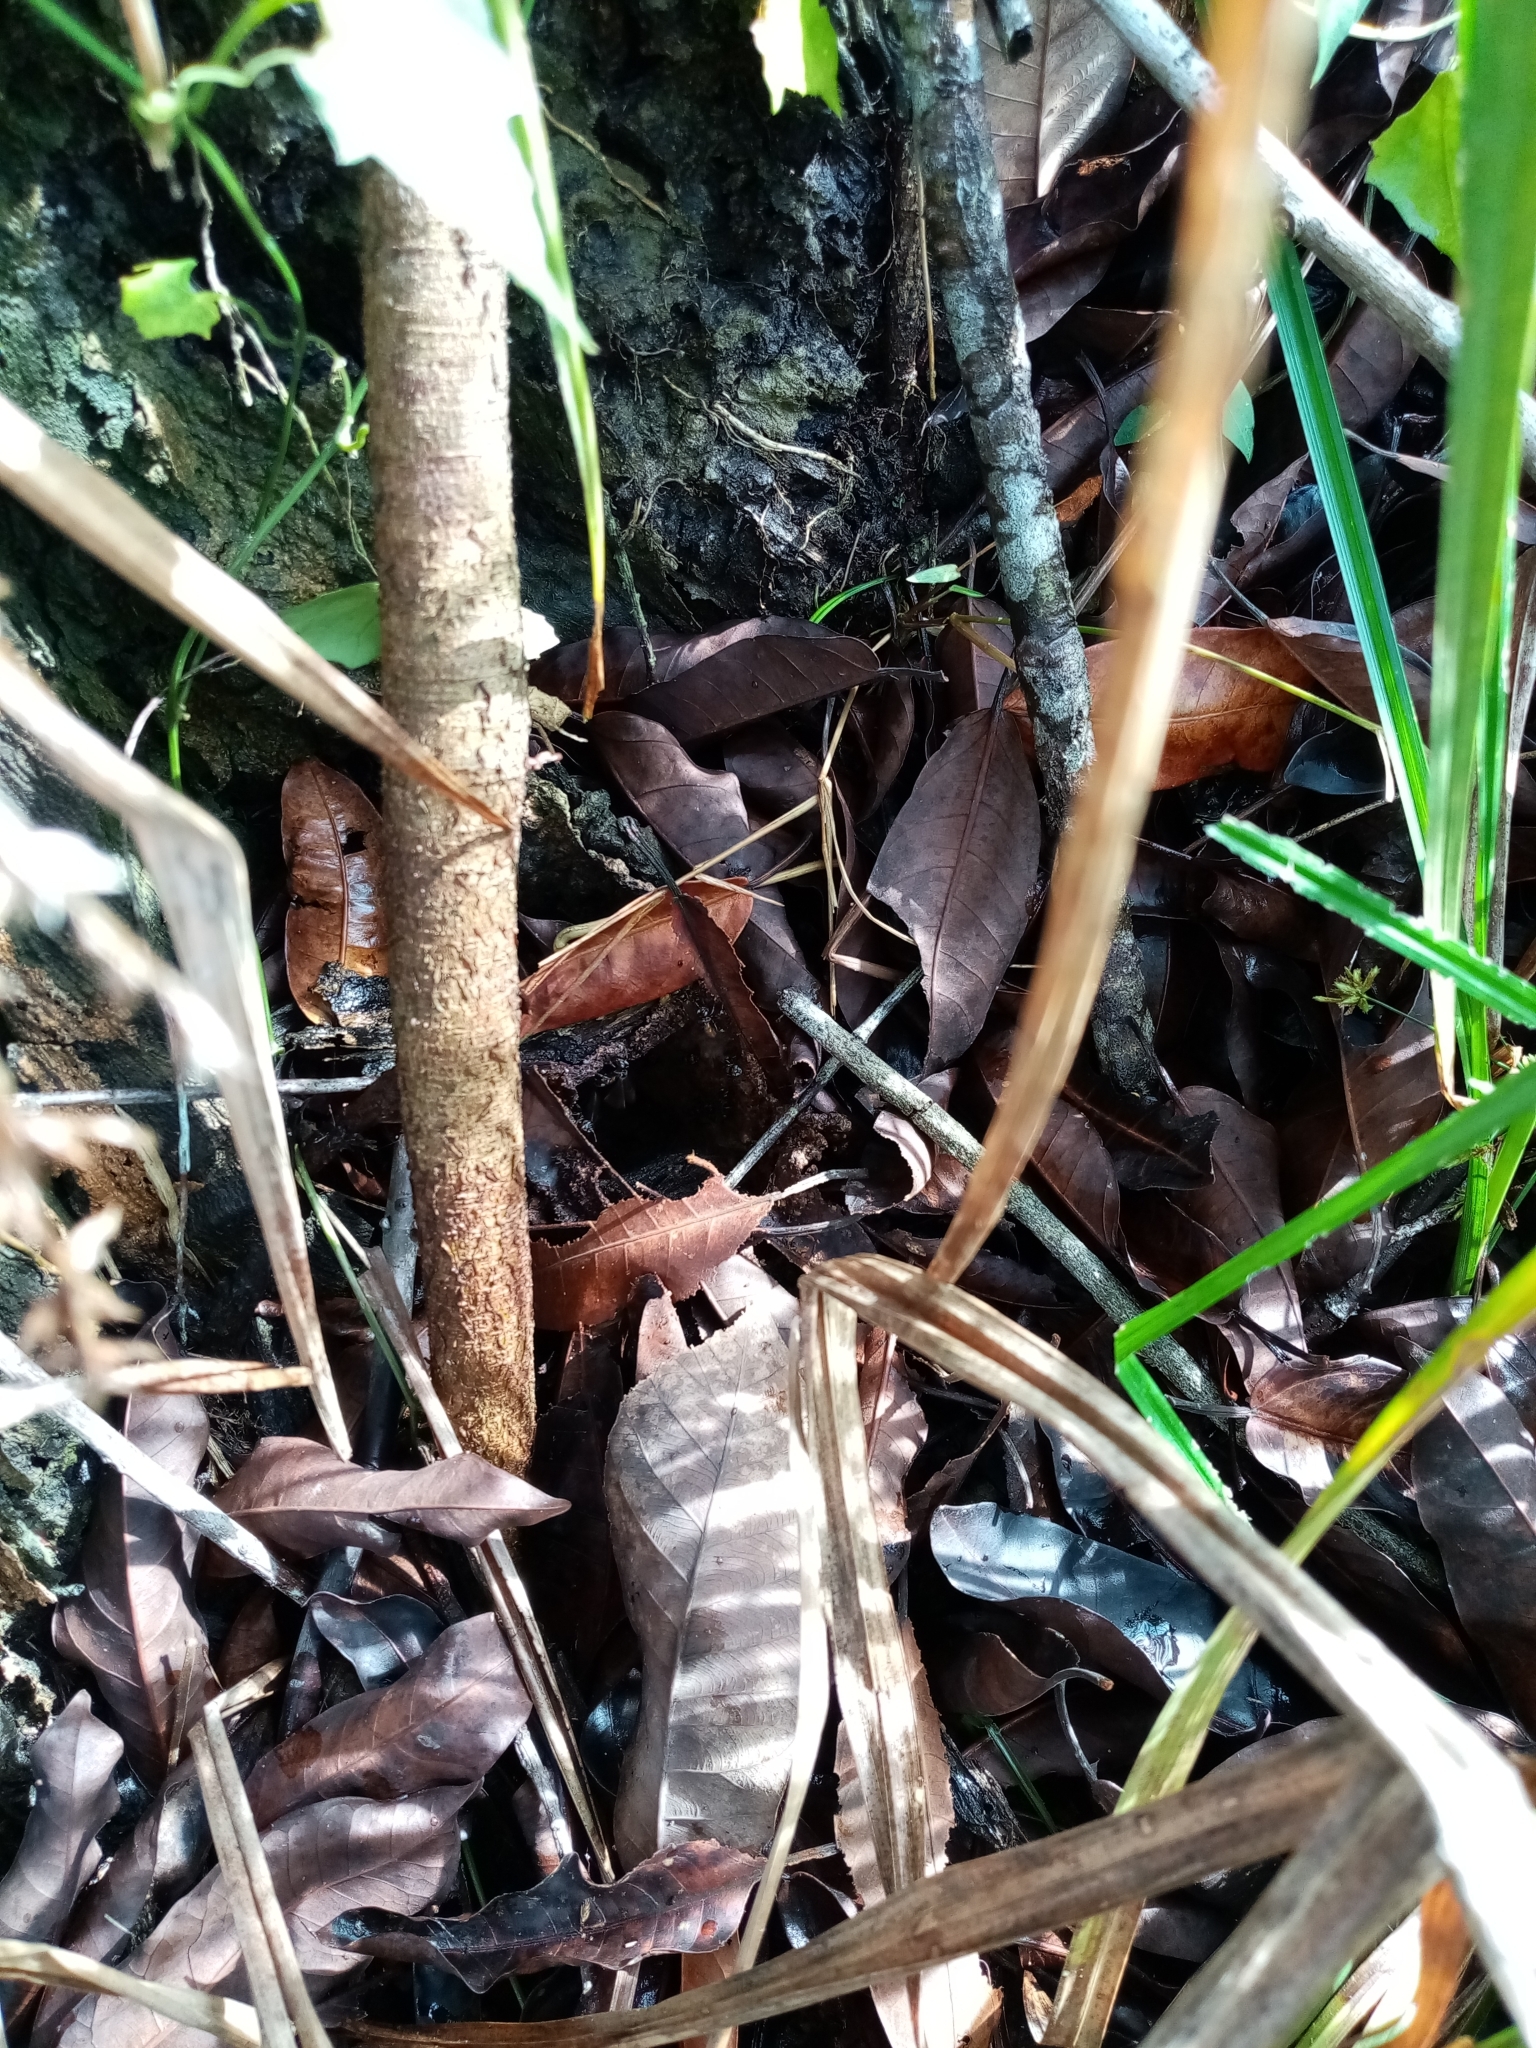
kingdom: Animalia
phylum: Arthropoda
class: Insecta
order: Hymenoptera
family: Apidae
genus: Trigona
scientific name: Trigona fulviventris
